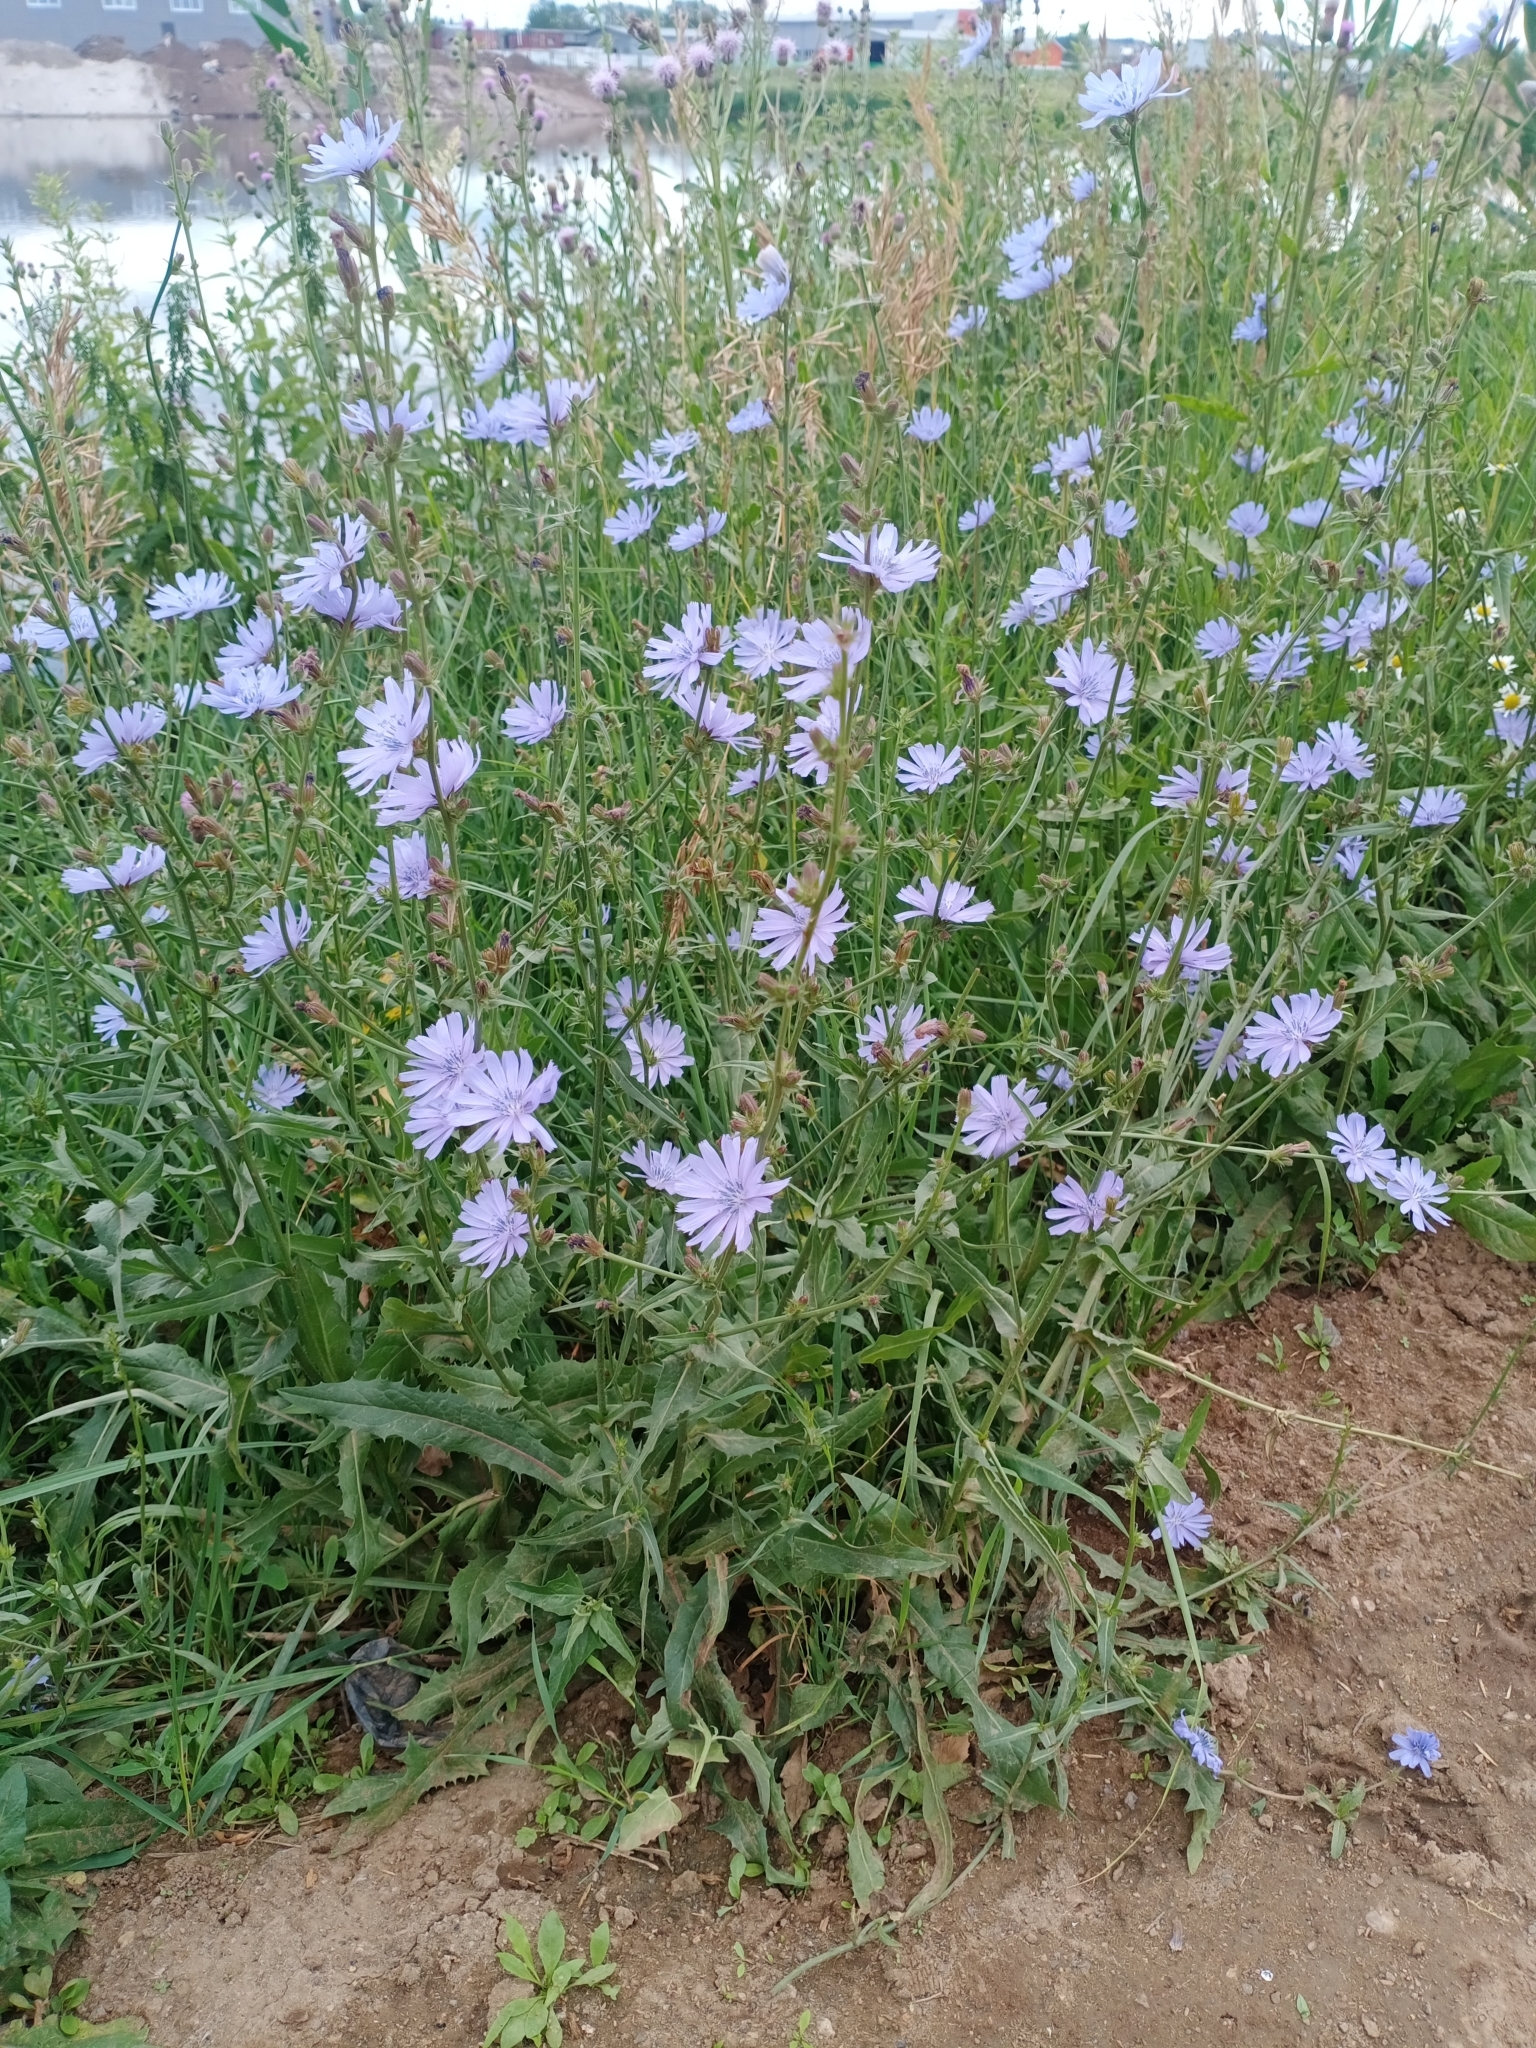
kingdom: Plantae
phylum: Tracheophyta
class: Magnoliopsida
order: Asterales
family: Asteraceae
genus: Cichorium
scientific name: Cichorium intybus
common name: Chicory
